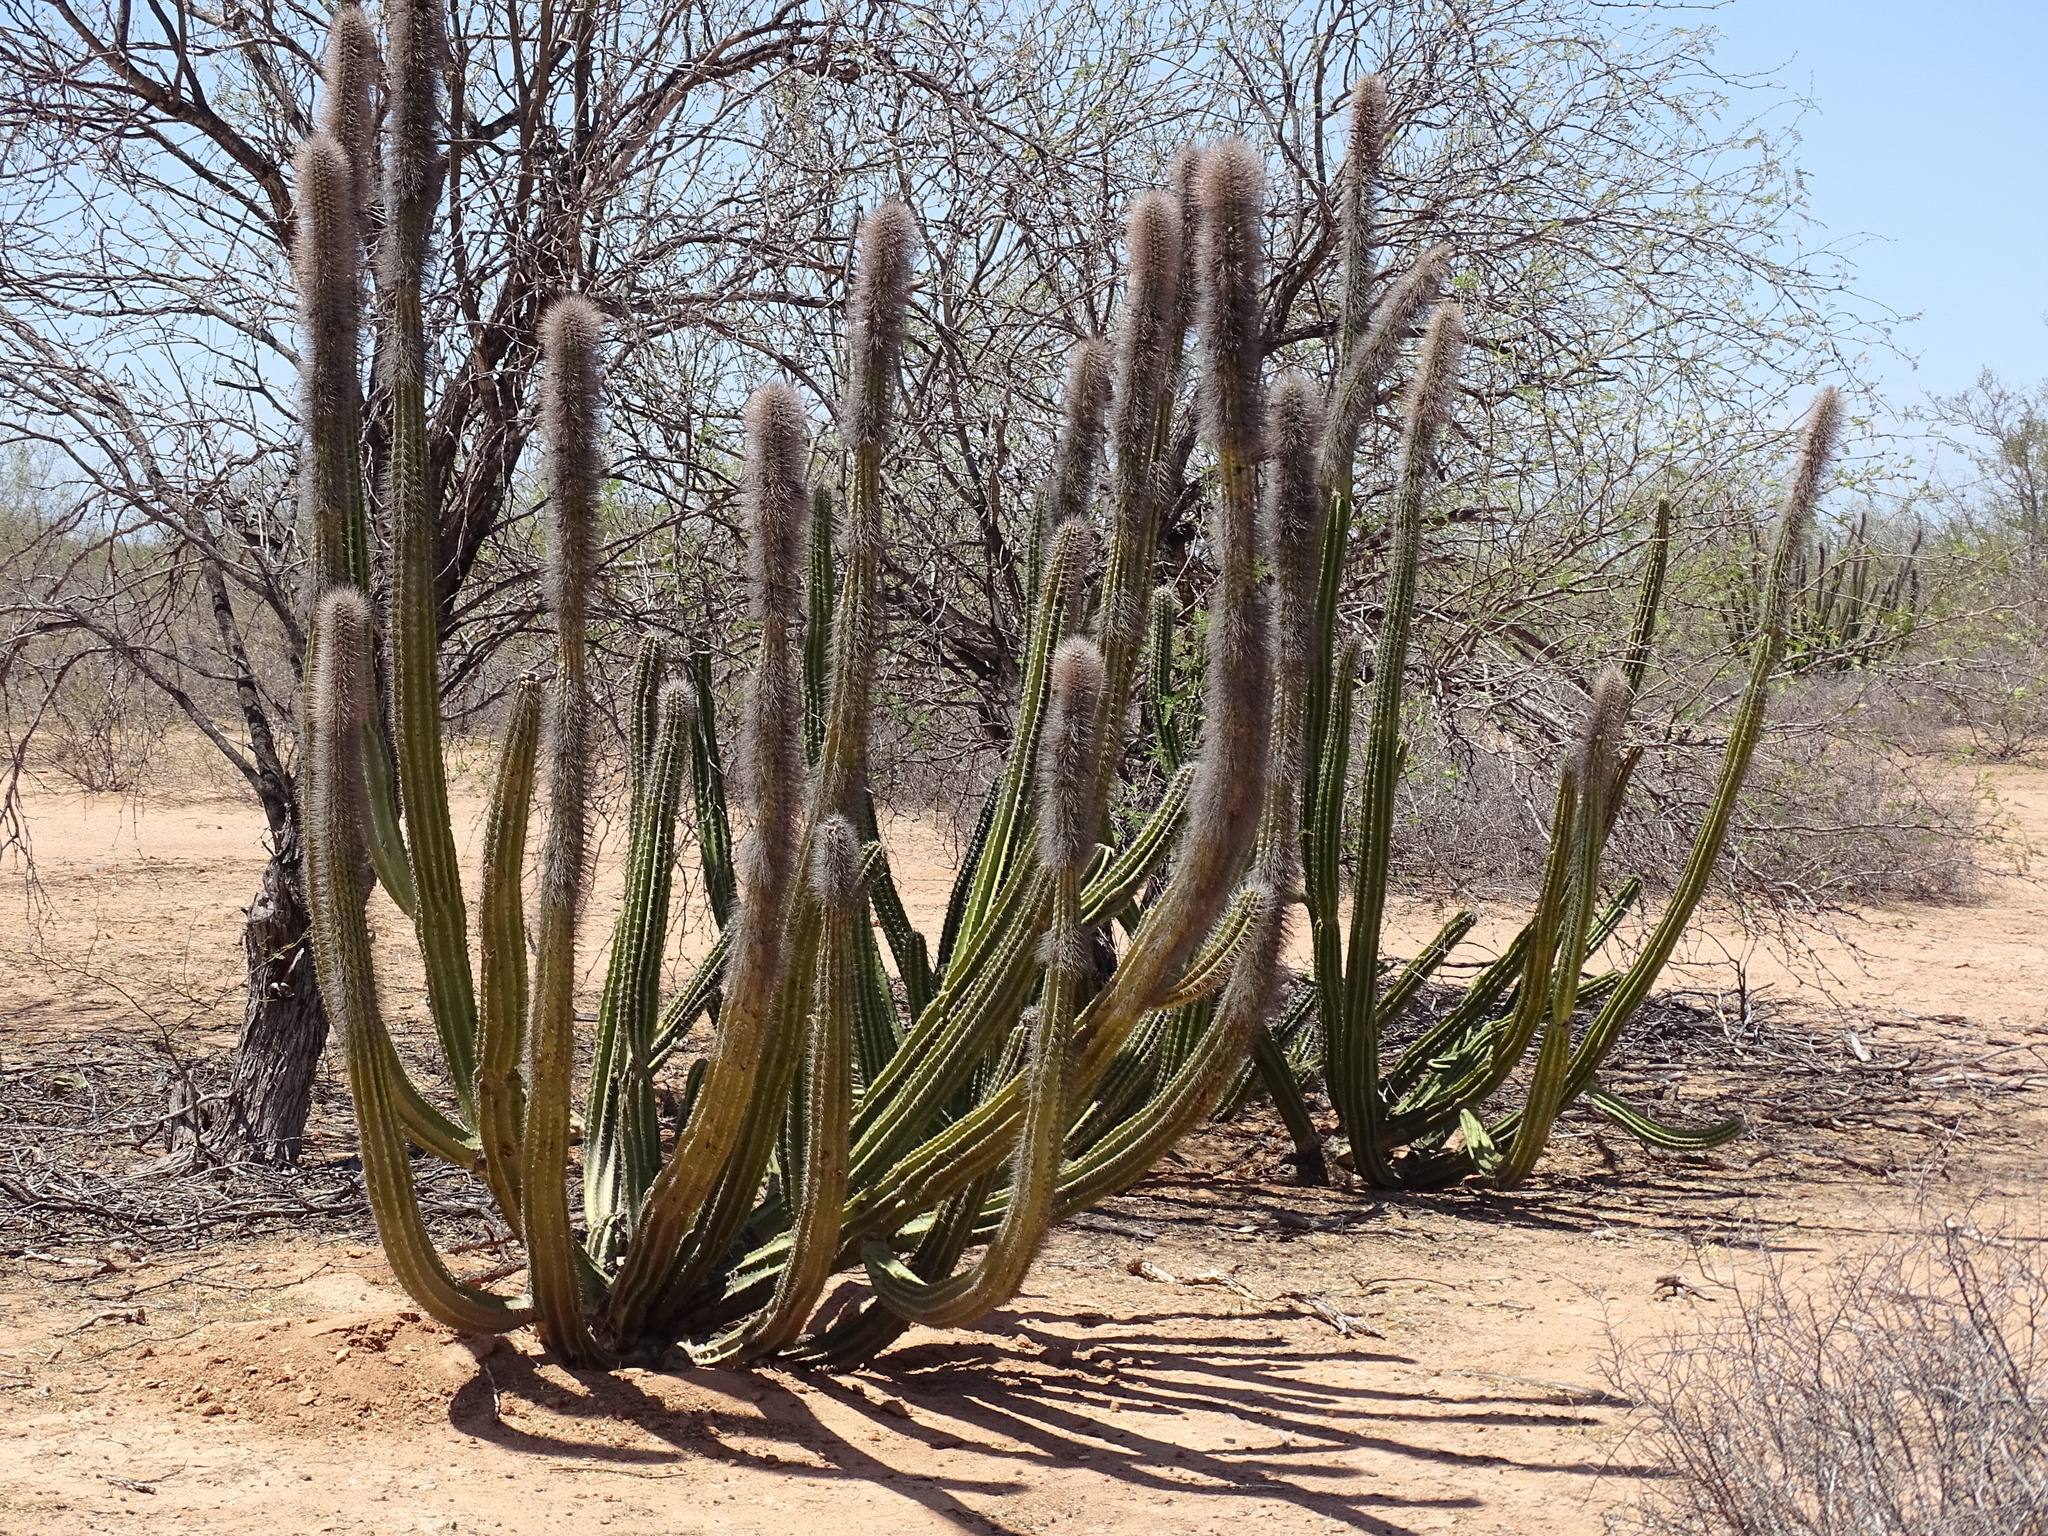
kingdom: Plantae
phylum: Tracheophyta
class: Magnoliopsida
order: Caryophyllales
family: Cactaceae
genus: Pachycereus
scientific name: Pachycereus schottii
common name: Senita cactus
